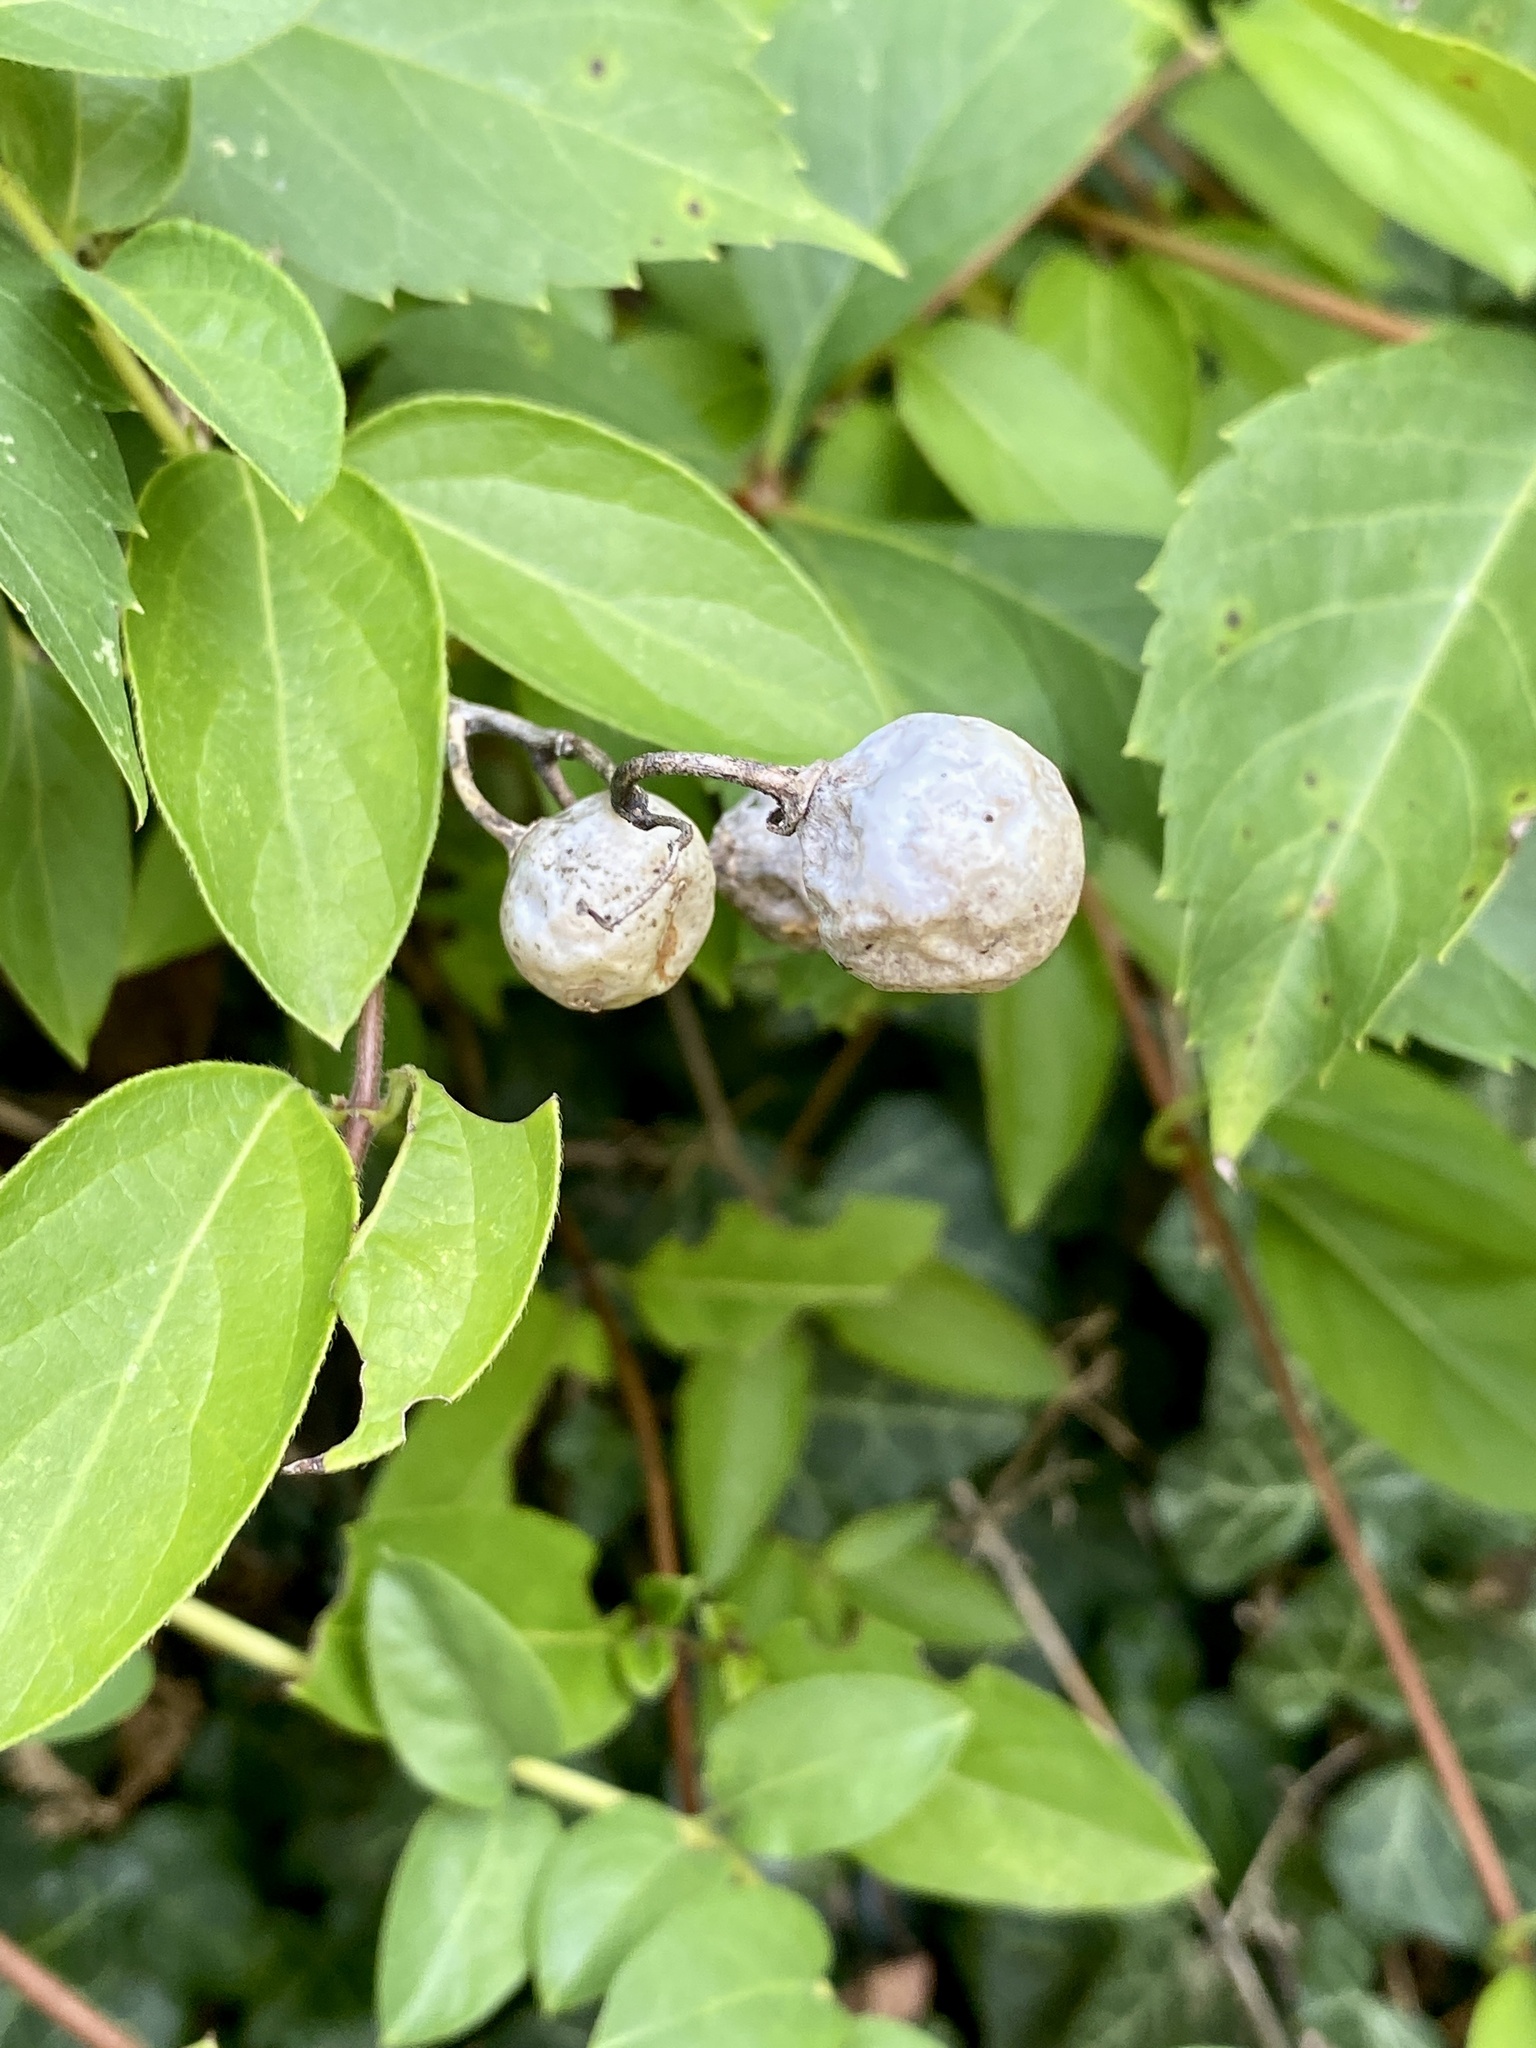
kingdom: Plantae
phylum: Tracheophyta
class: Magnoliopsida
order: Solanales
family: Solanaceae
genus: Solanum
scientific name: Solanum carolinense
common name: Horse-nettle
